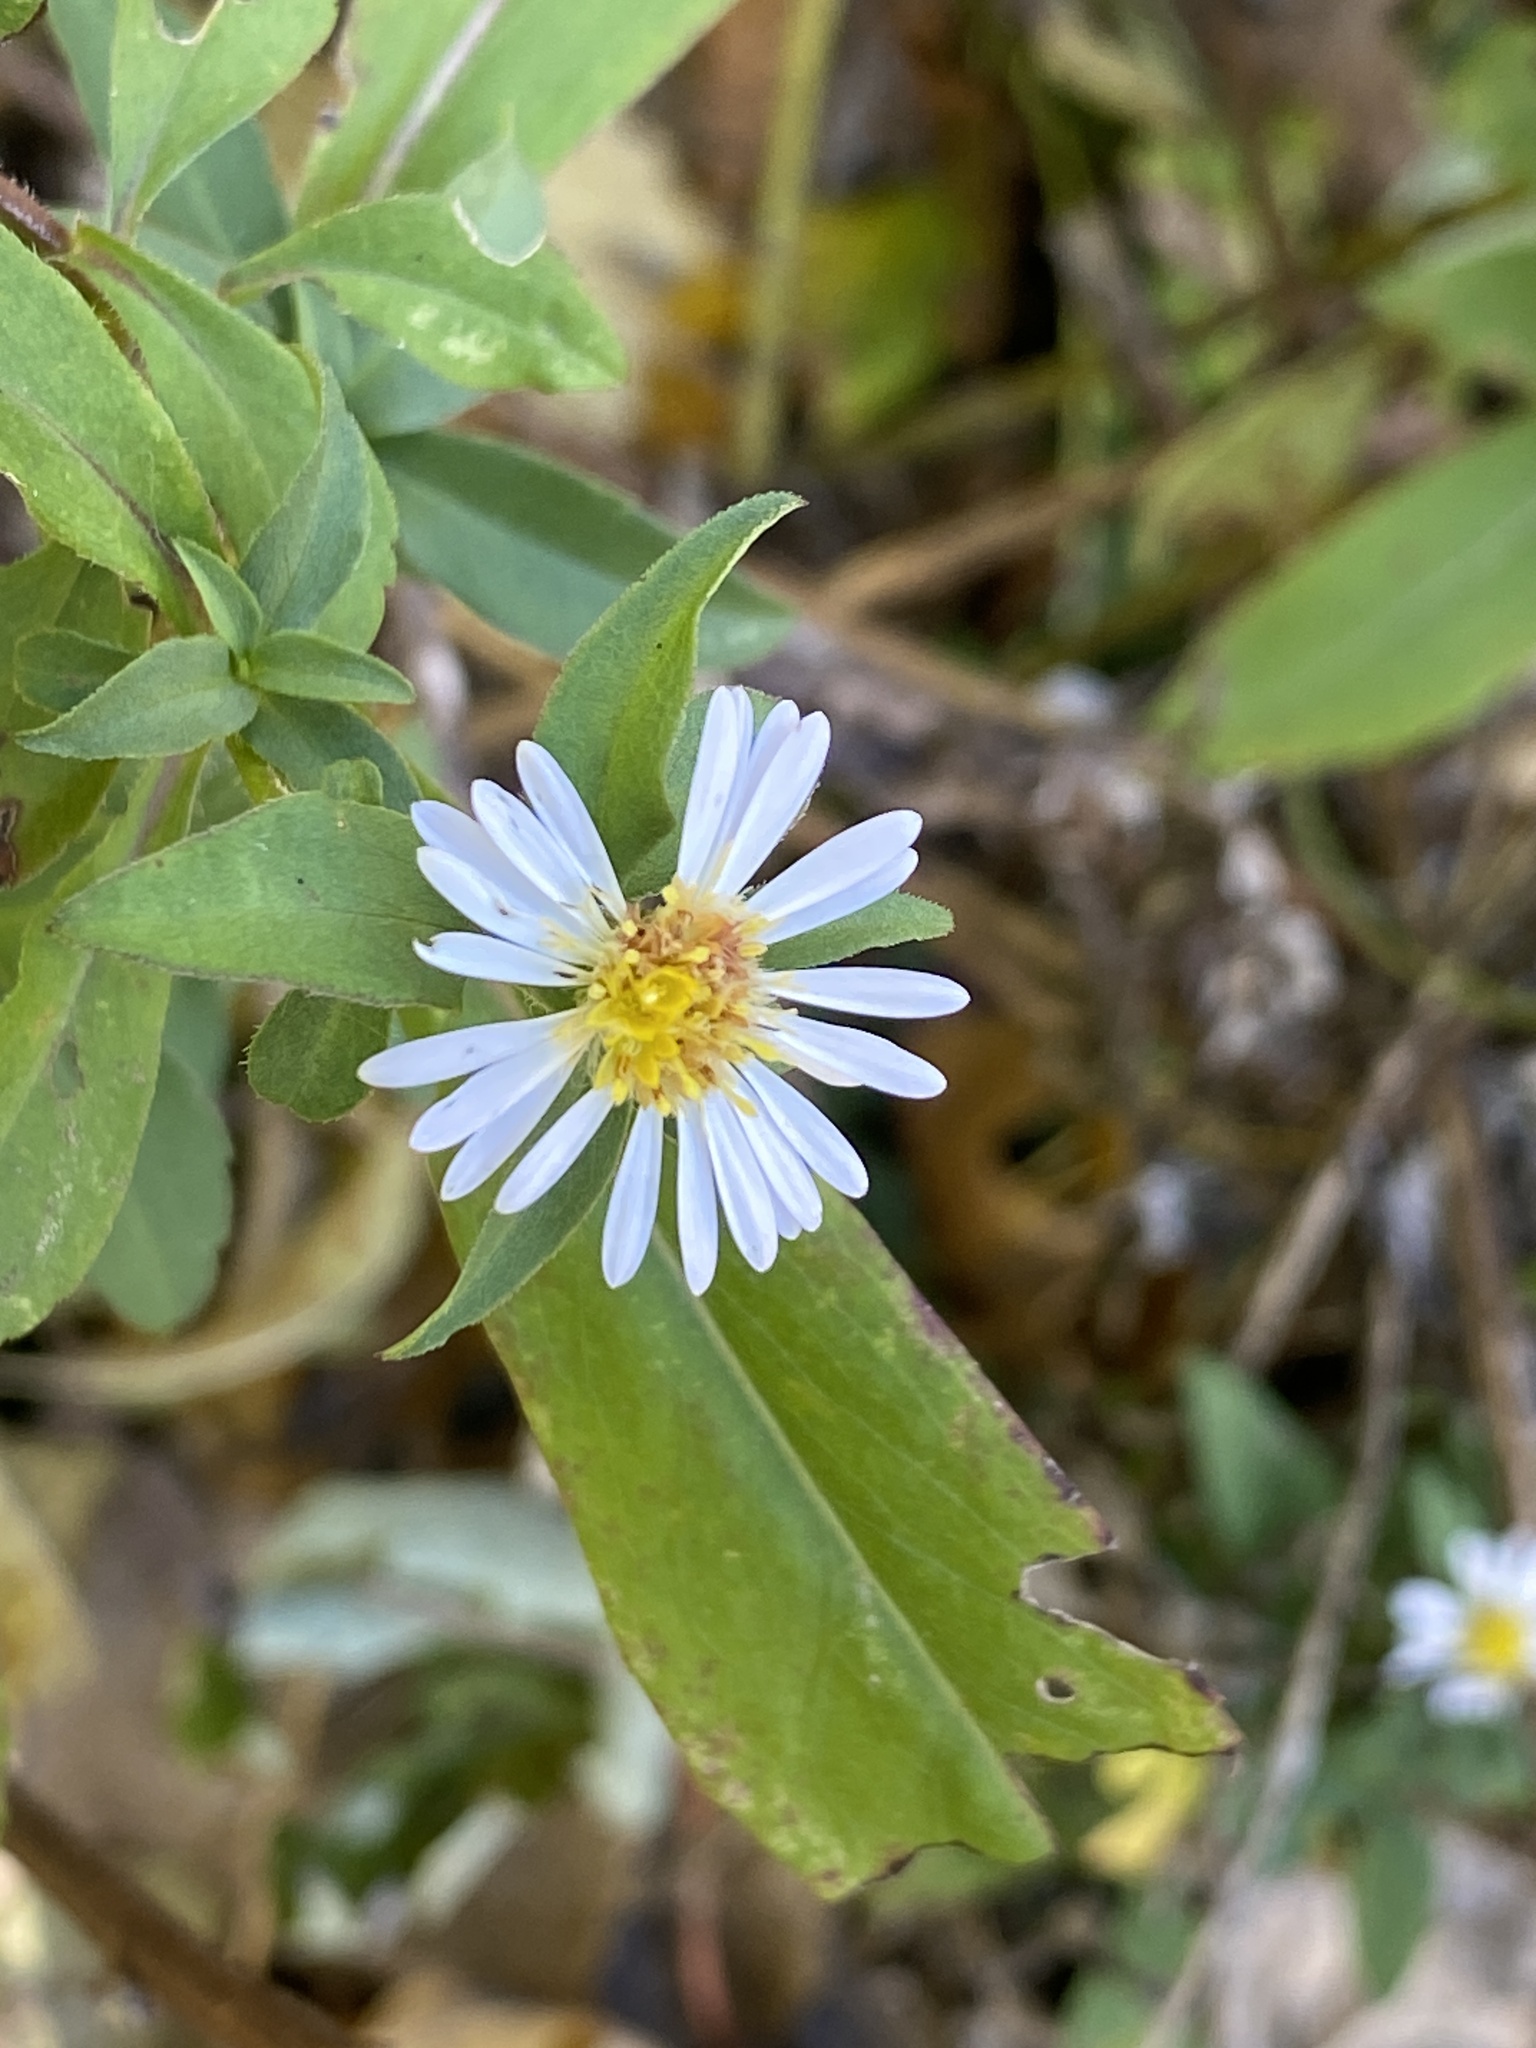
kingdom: Plantae
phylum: Tracheophyta
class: Magnoliopsida
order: Asterales
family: Asteraceae
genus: Symphyotrichum
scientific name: Symphyotrichum lanceolatum
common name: Panicled aster
